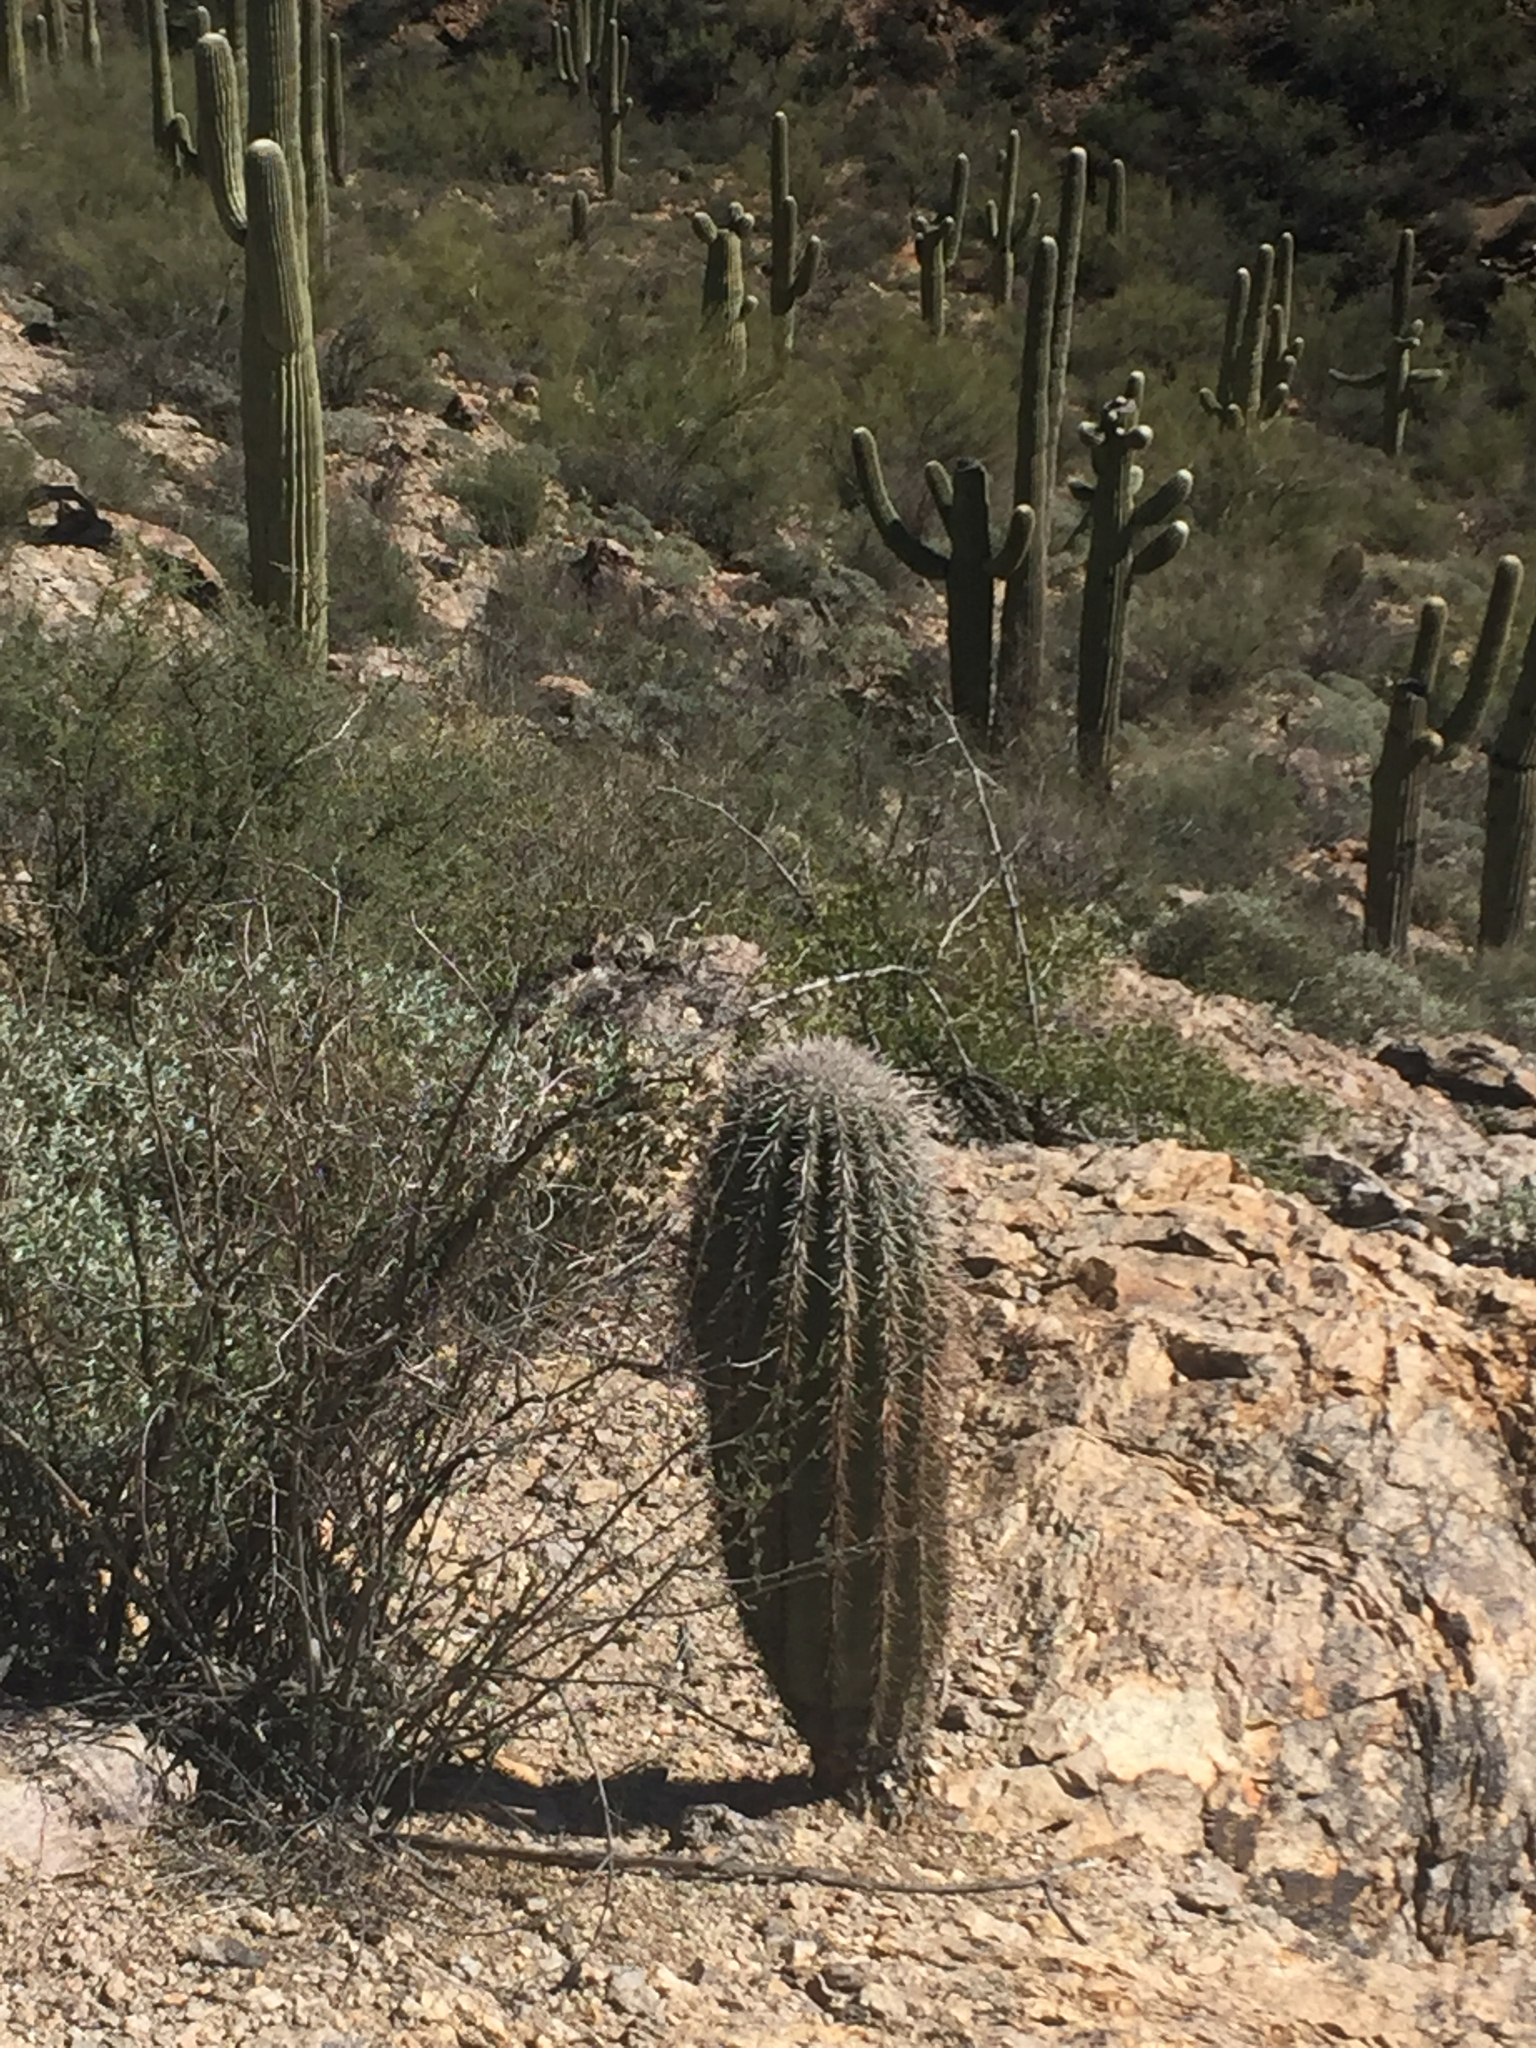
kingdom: Plantae
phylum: Tracheophyta
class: Magnoliopsida
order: Caryophyllales
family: Cactaceae
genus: Carnegiea
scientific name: Carnegiea gigantea
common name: Saguaro
